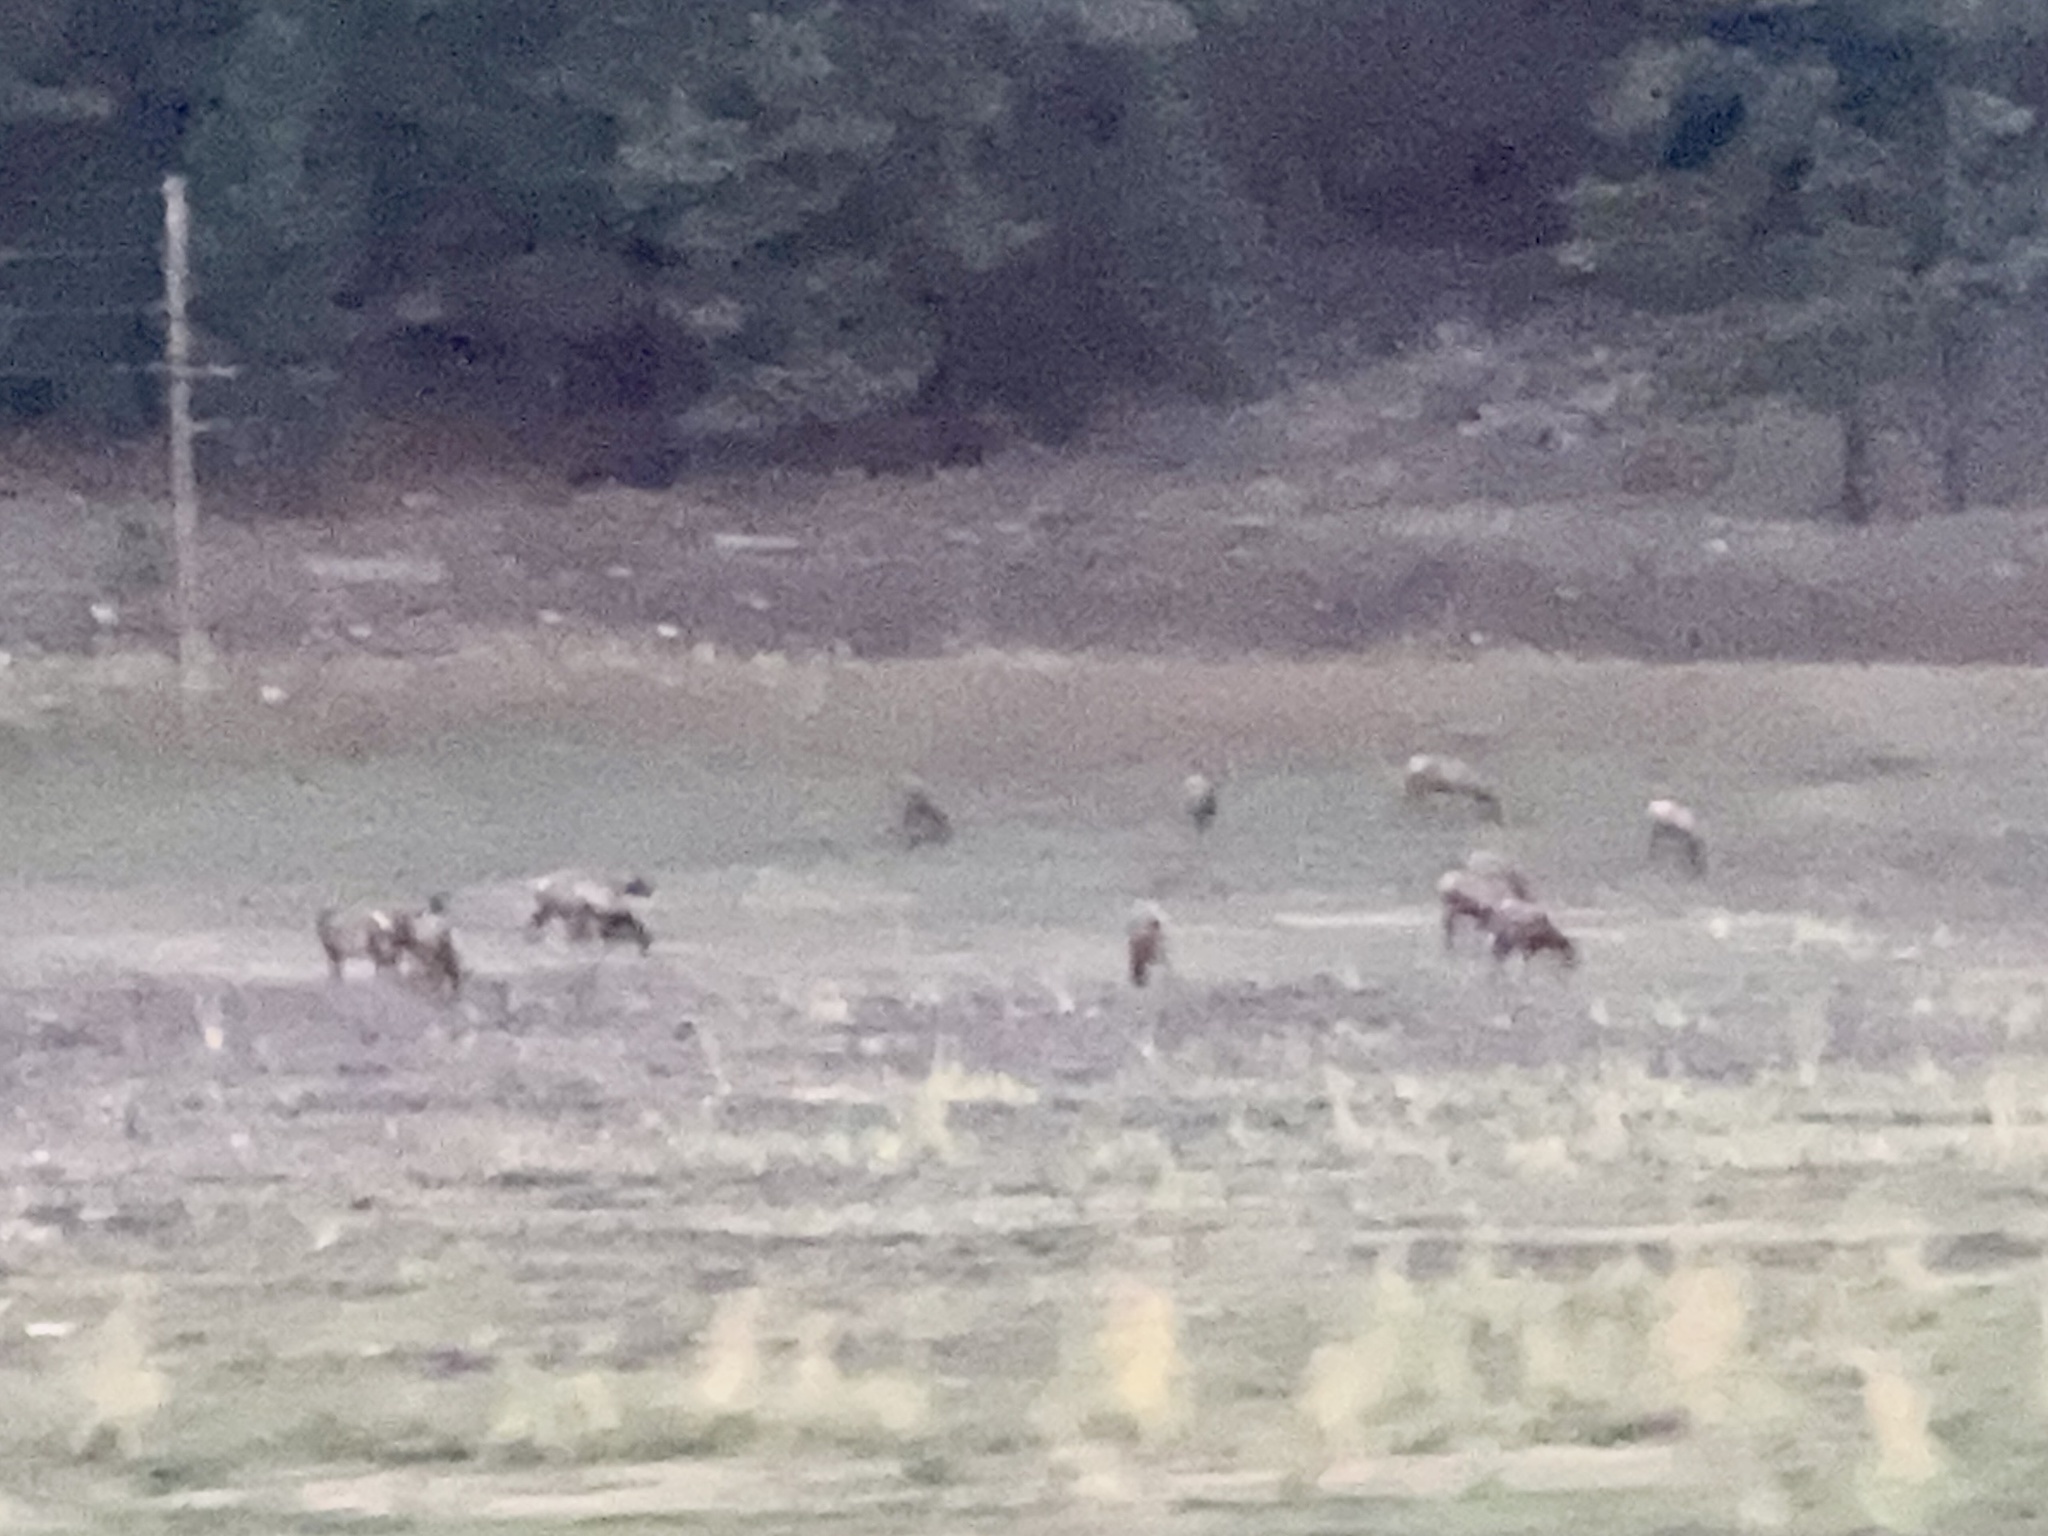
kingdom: Animalia
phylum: Chordata
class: Mammalia
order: Artiodactyla
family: Cervidae
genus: Cervus
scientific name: Cervus elaphus
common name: Red deer
